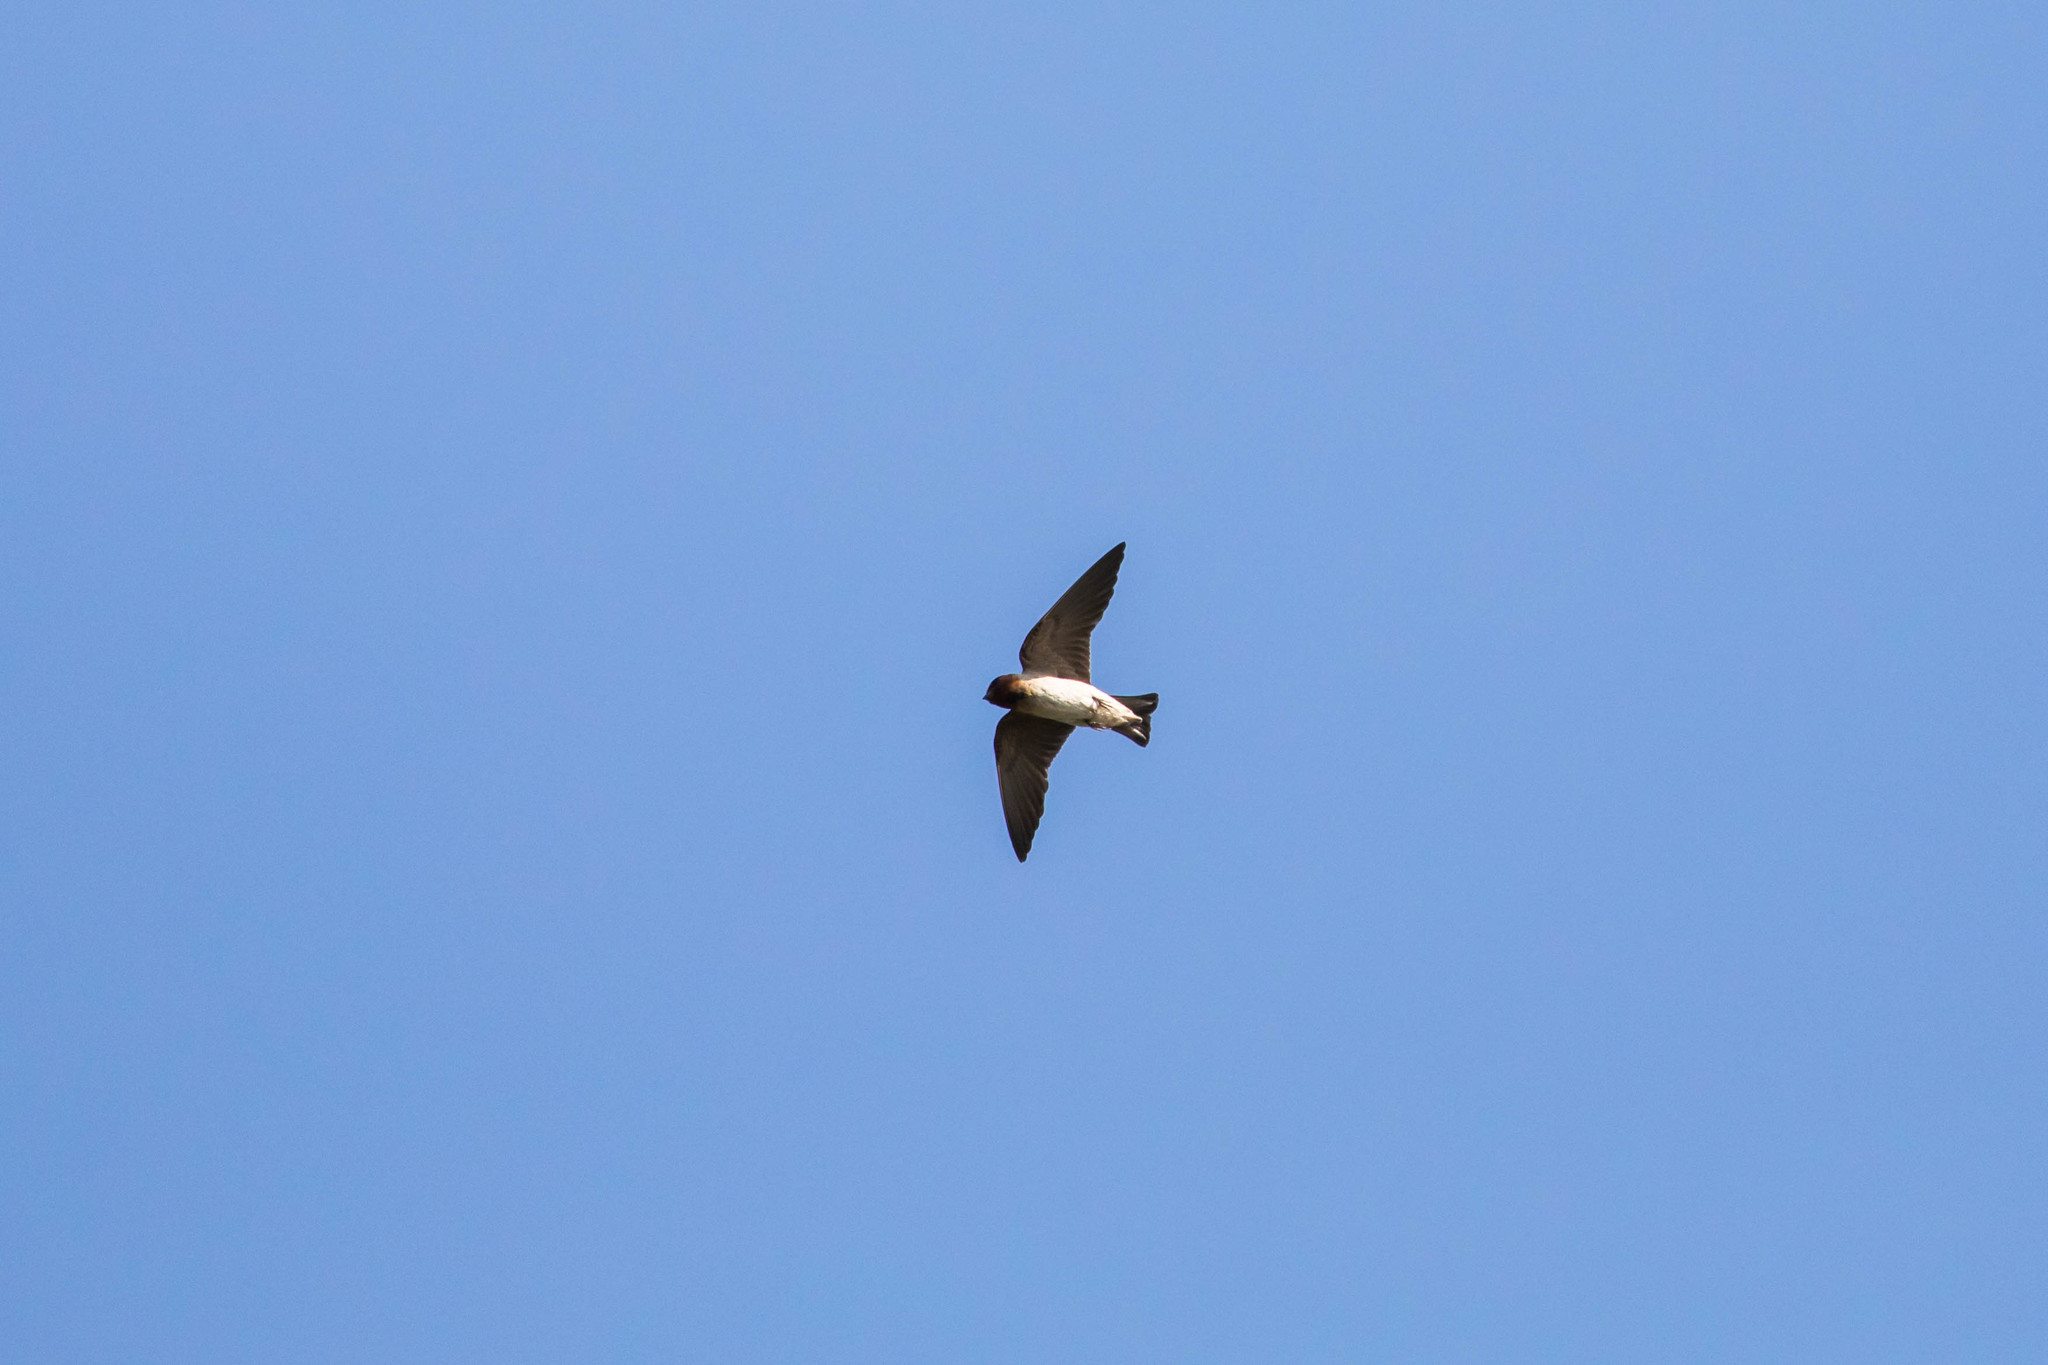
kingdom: Animalia
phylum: Chordata
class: Aves
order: Passeriformes
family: Hirundinidae
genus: Petrochelidon
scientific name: Petrochelidon pyrrhonota
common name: American cliff swallow
